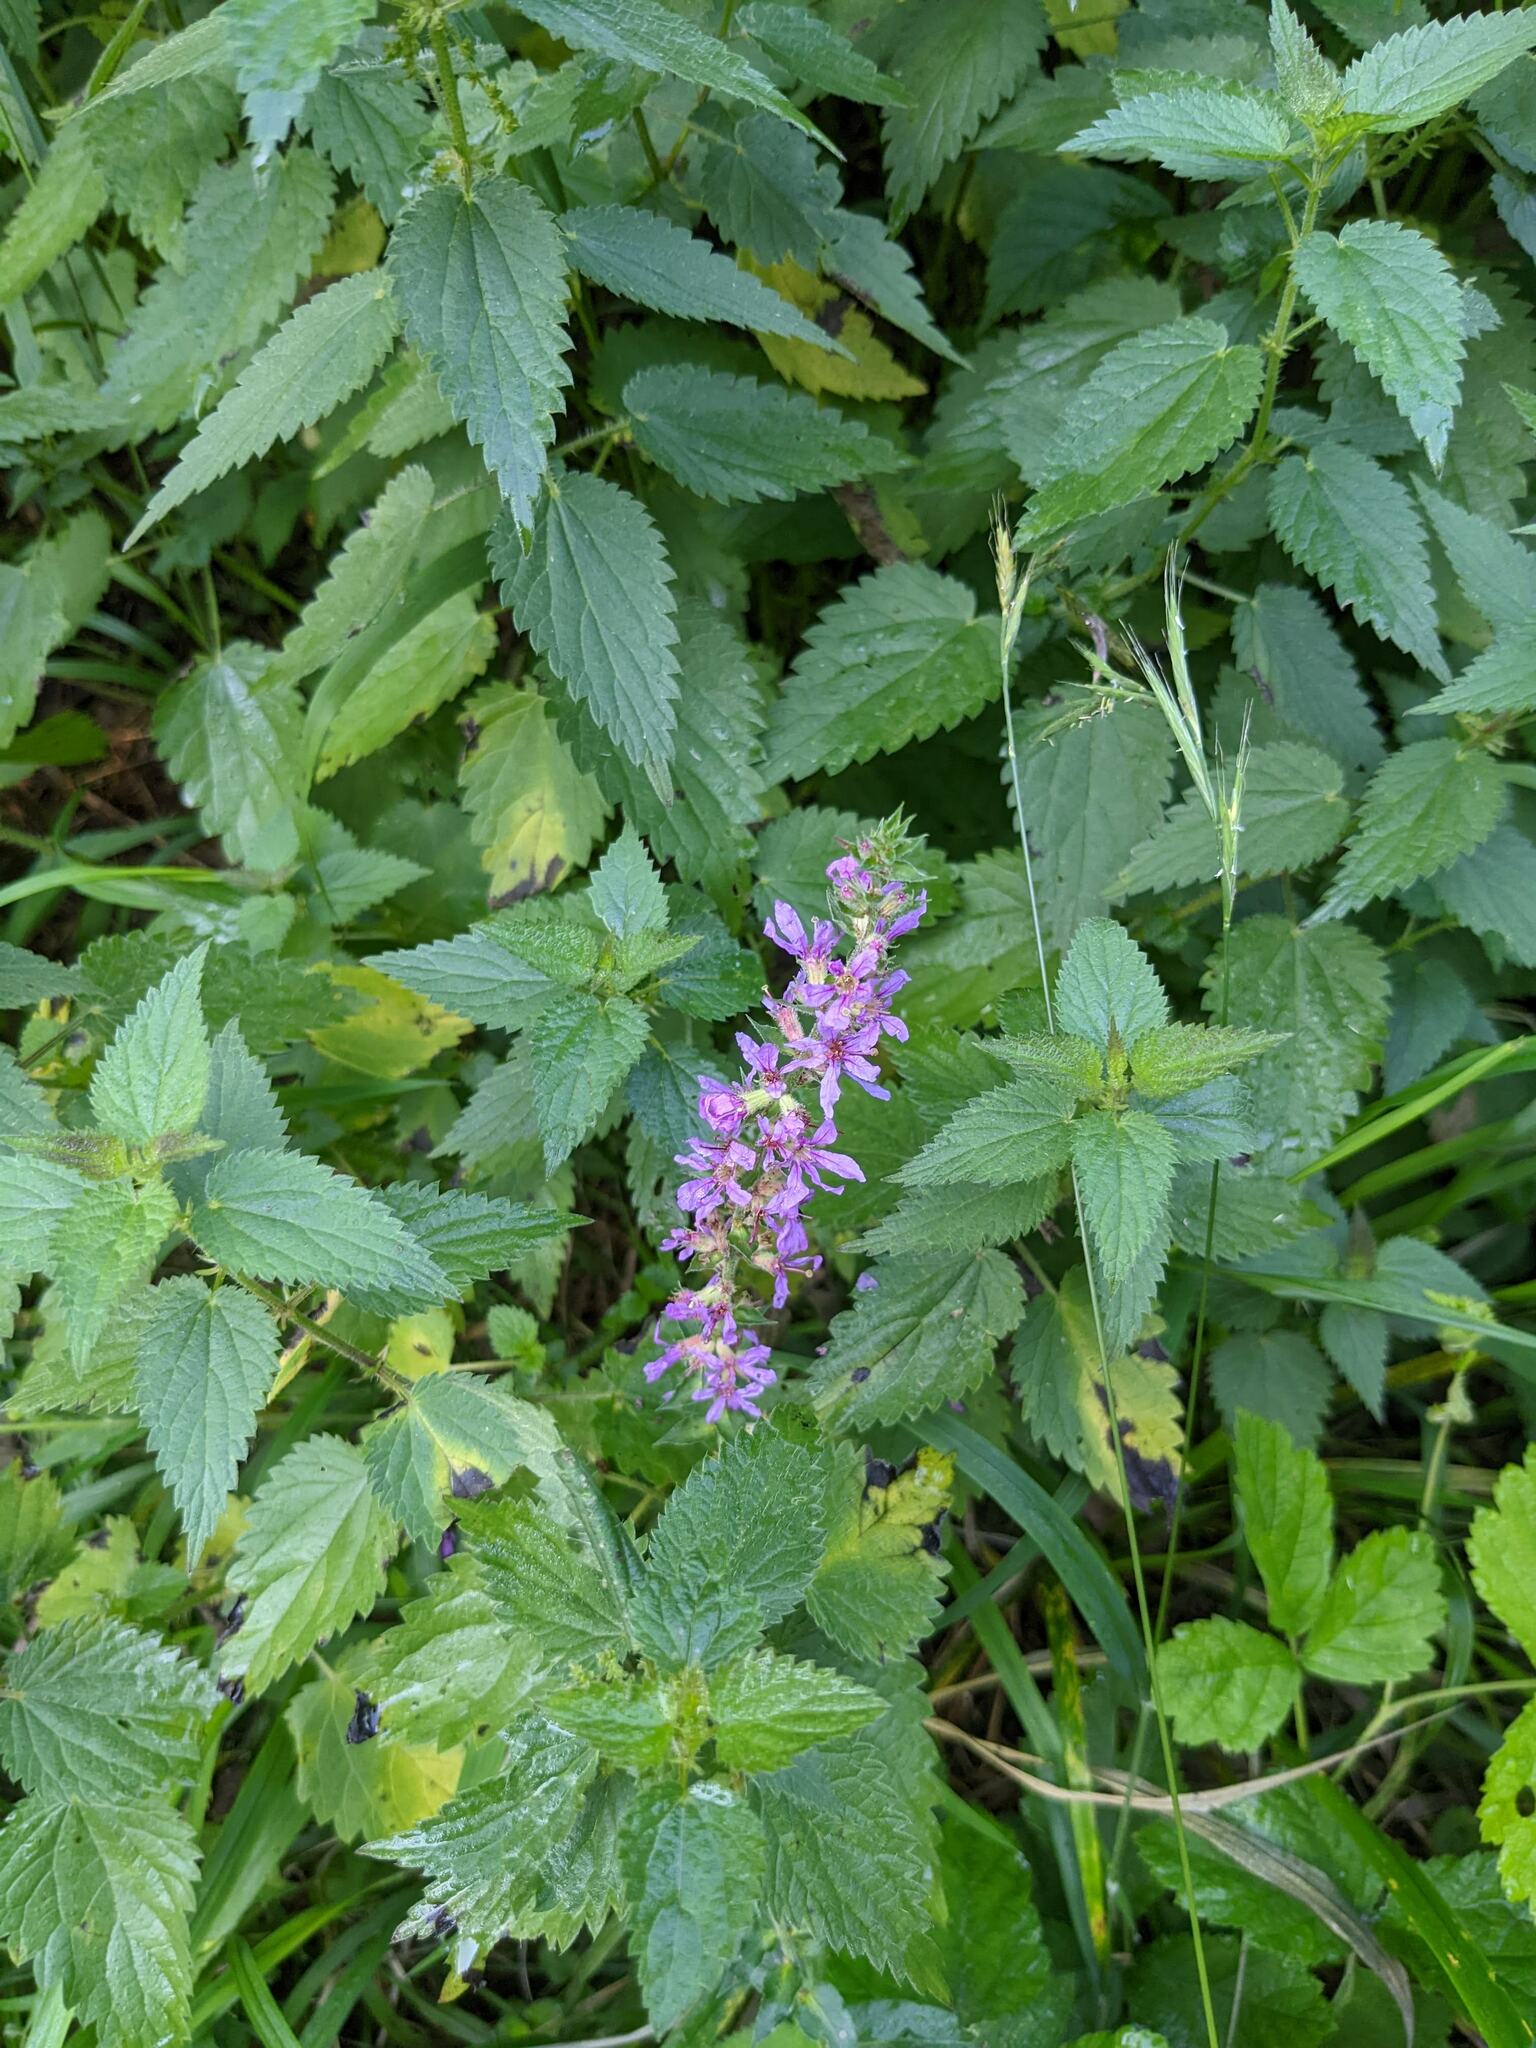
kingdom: Plantae
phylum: Tracheophyta
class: Magnoliopsida
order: Myrtales
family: Lythraceae
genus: Lythrum
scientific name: Lythrum salicaria
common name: Purple loosestrife
